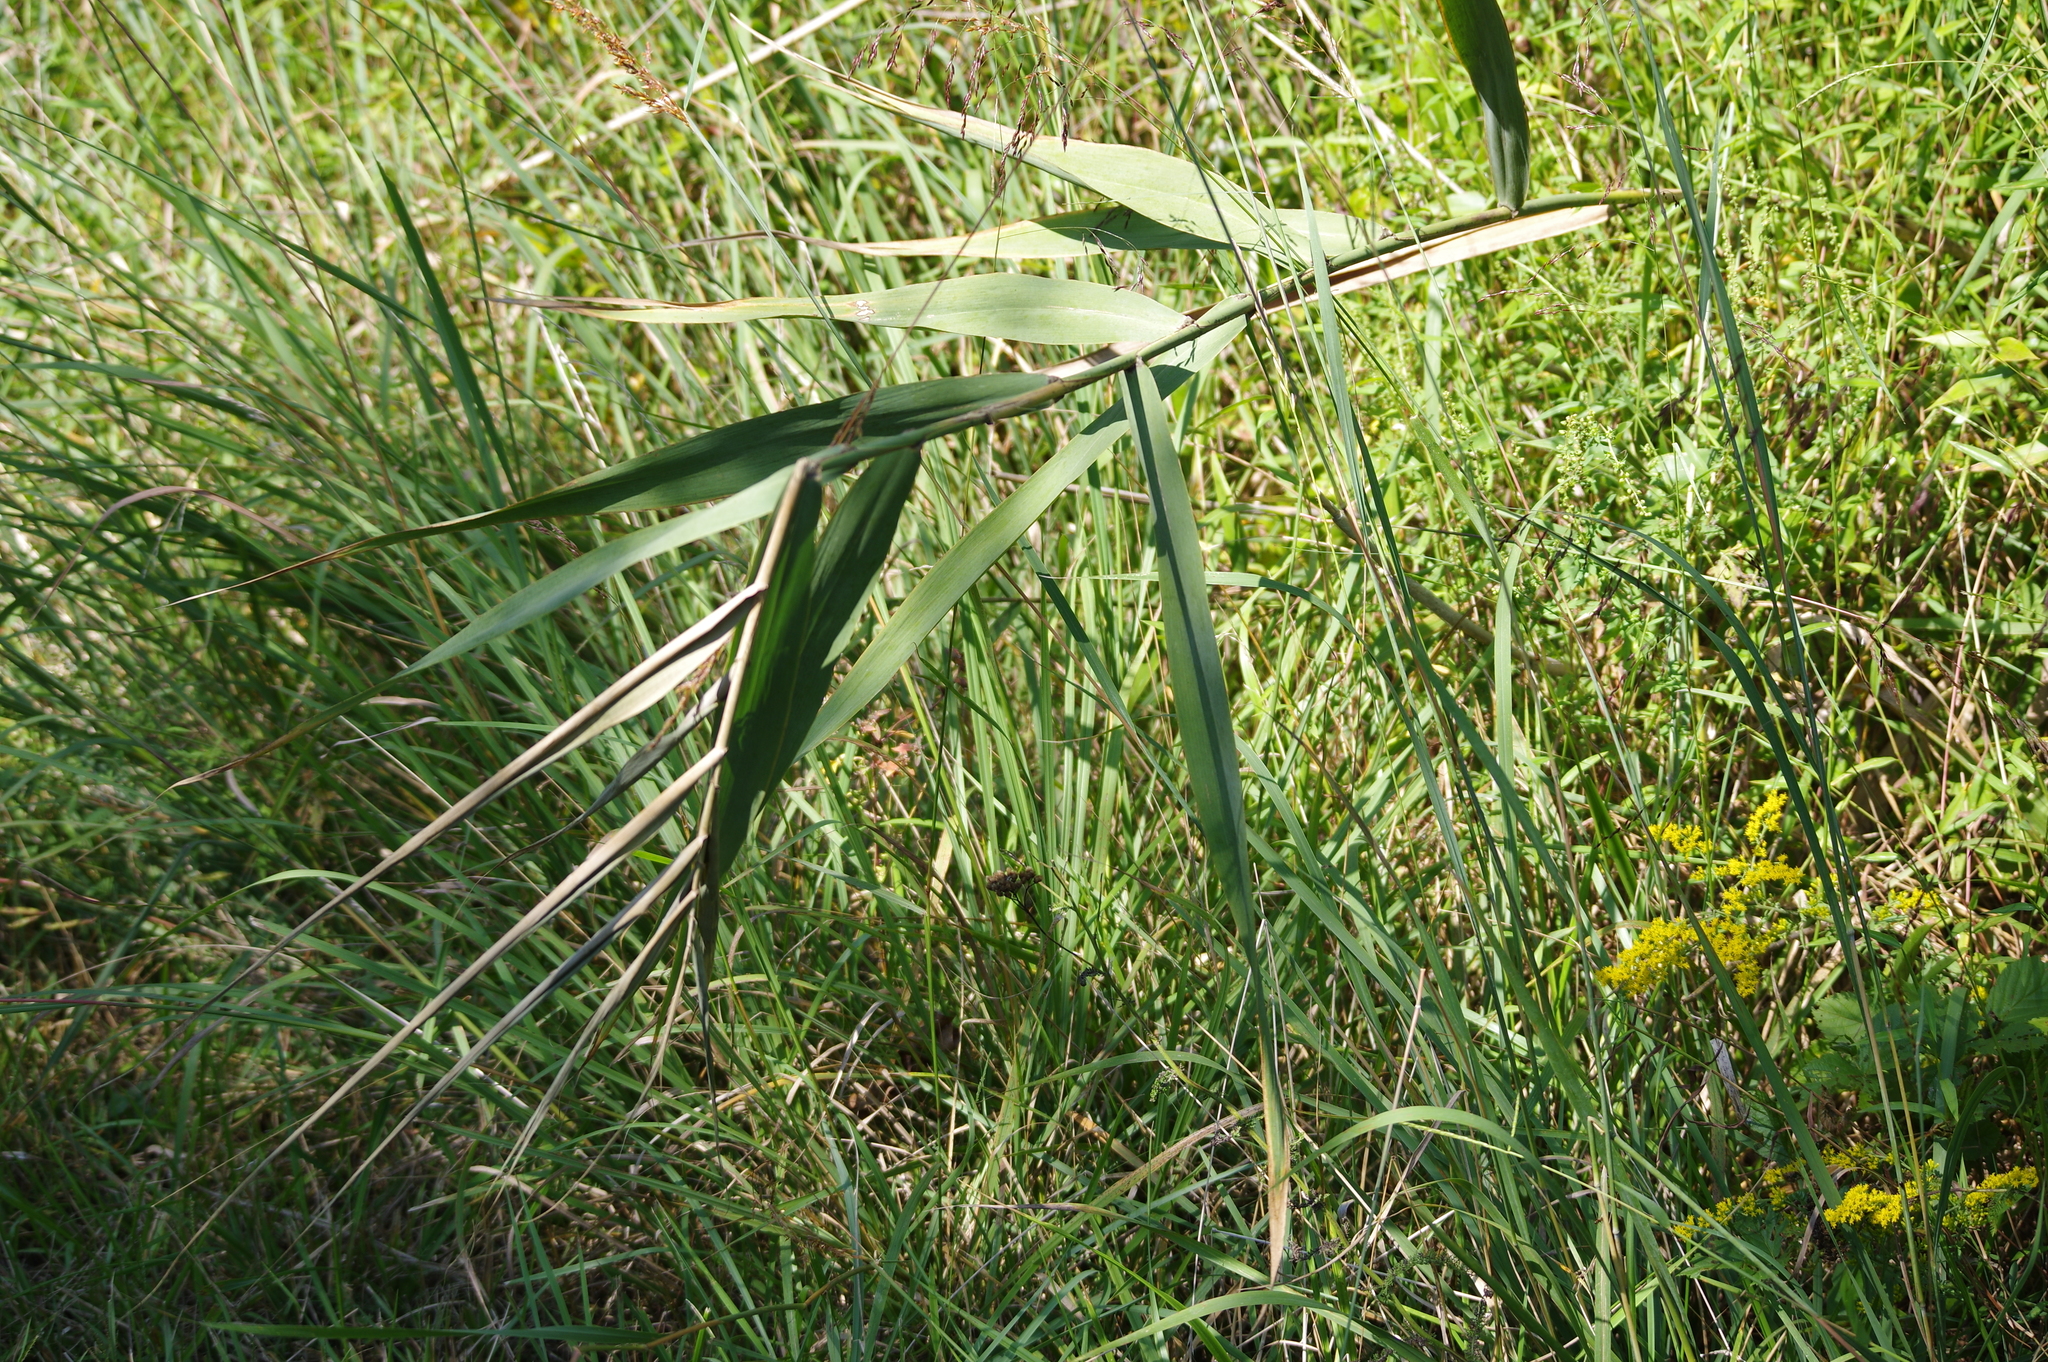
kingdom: Plantae
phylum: Tracheophyta
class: Liliopsida
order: Poales
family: Poaceae
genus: Phragmites
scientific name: Phragmites australis
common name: Common reed
